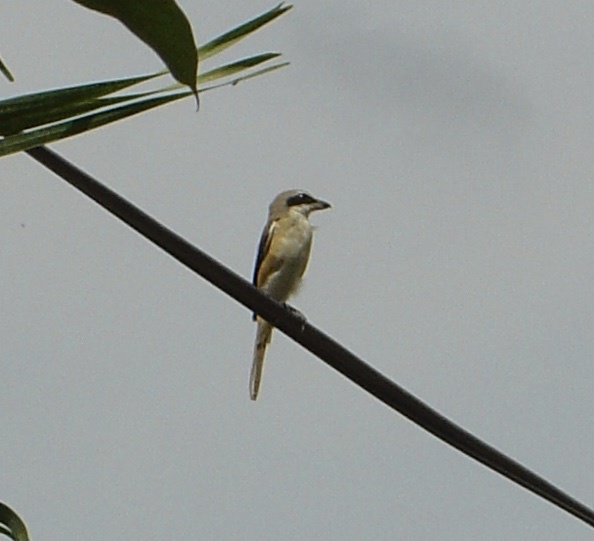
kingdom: Animalia
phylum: Chordata
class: Aves
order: Passeriformes
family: Laniidae
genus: Lanius
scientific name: Lanius cristatus
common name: Brown shrike
